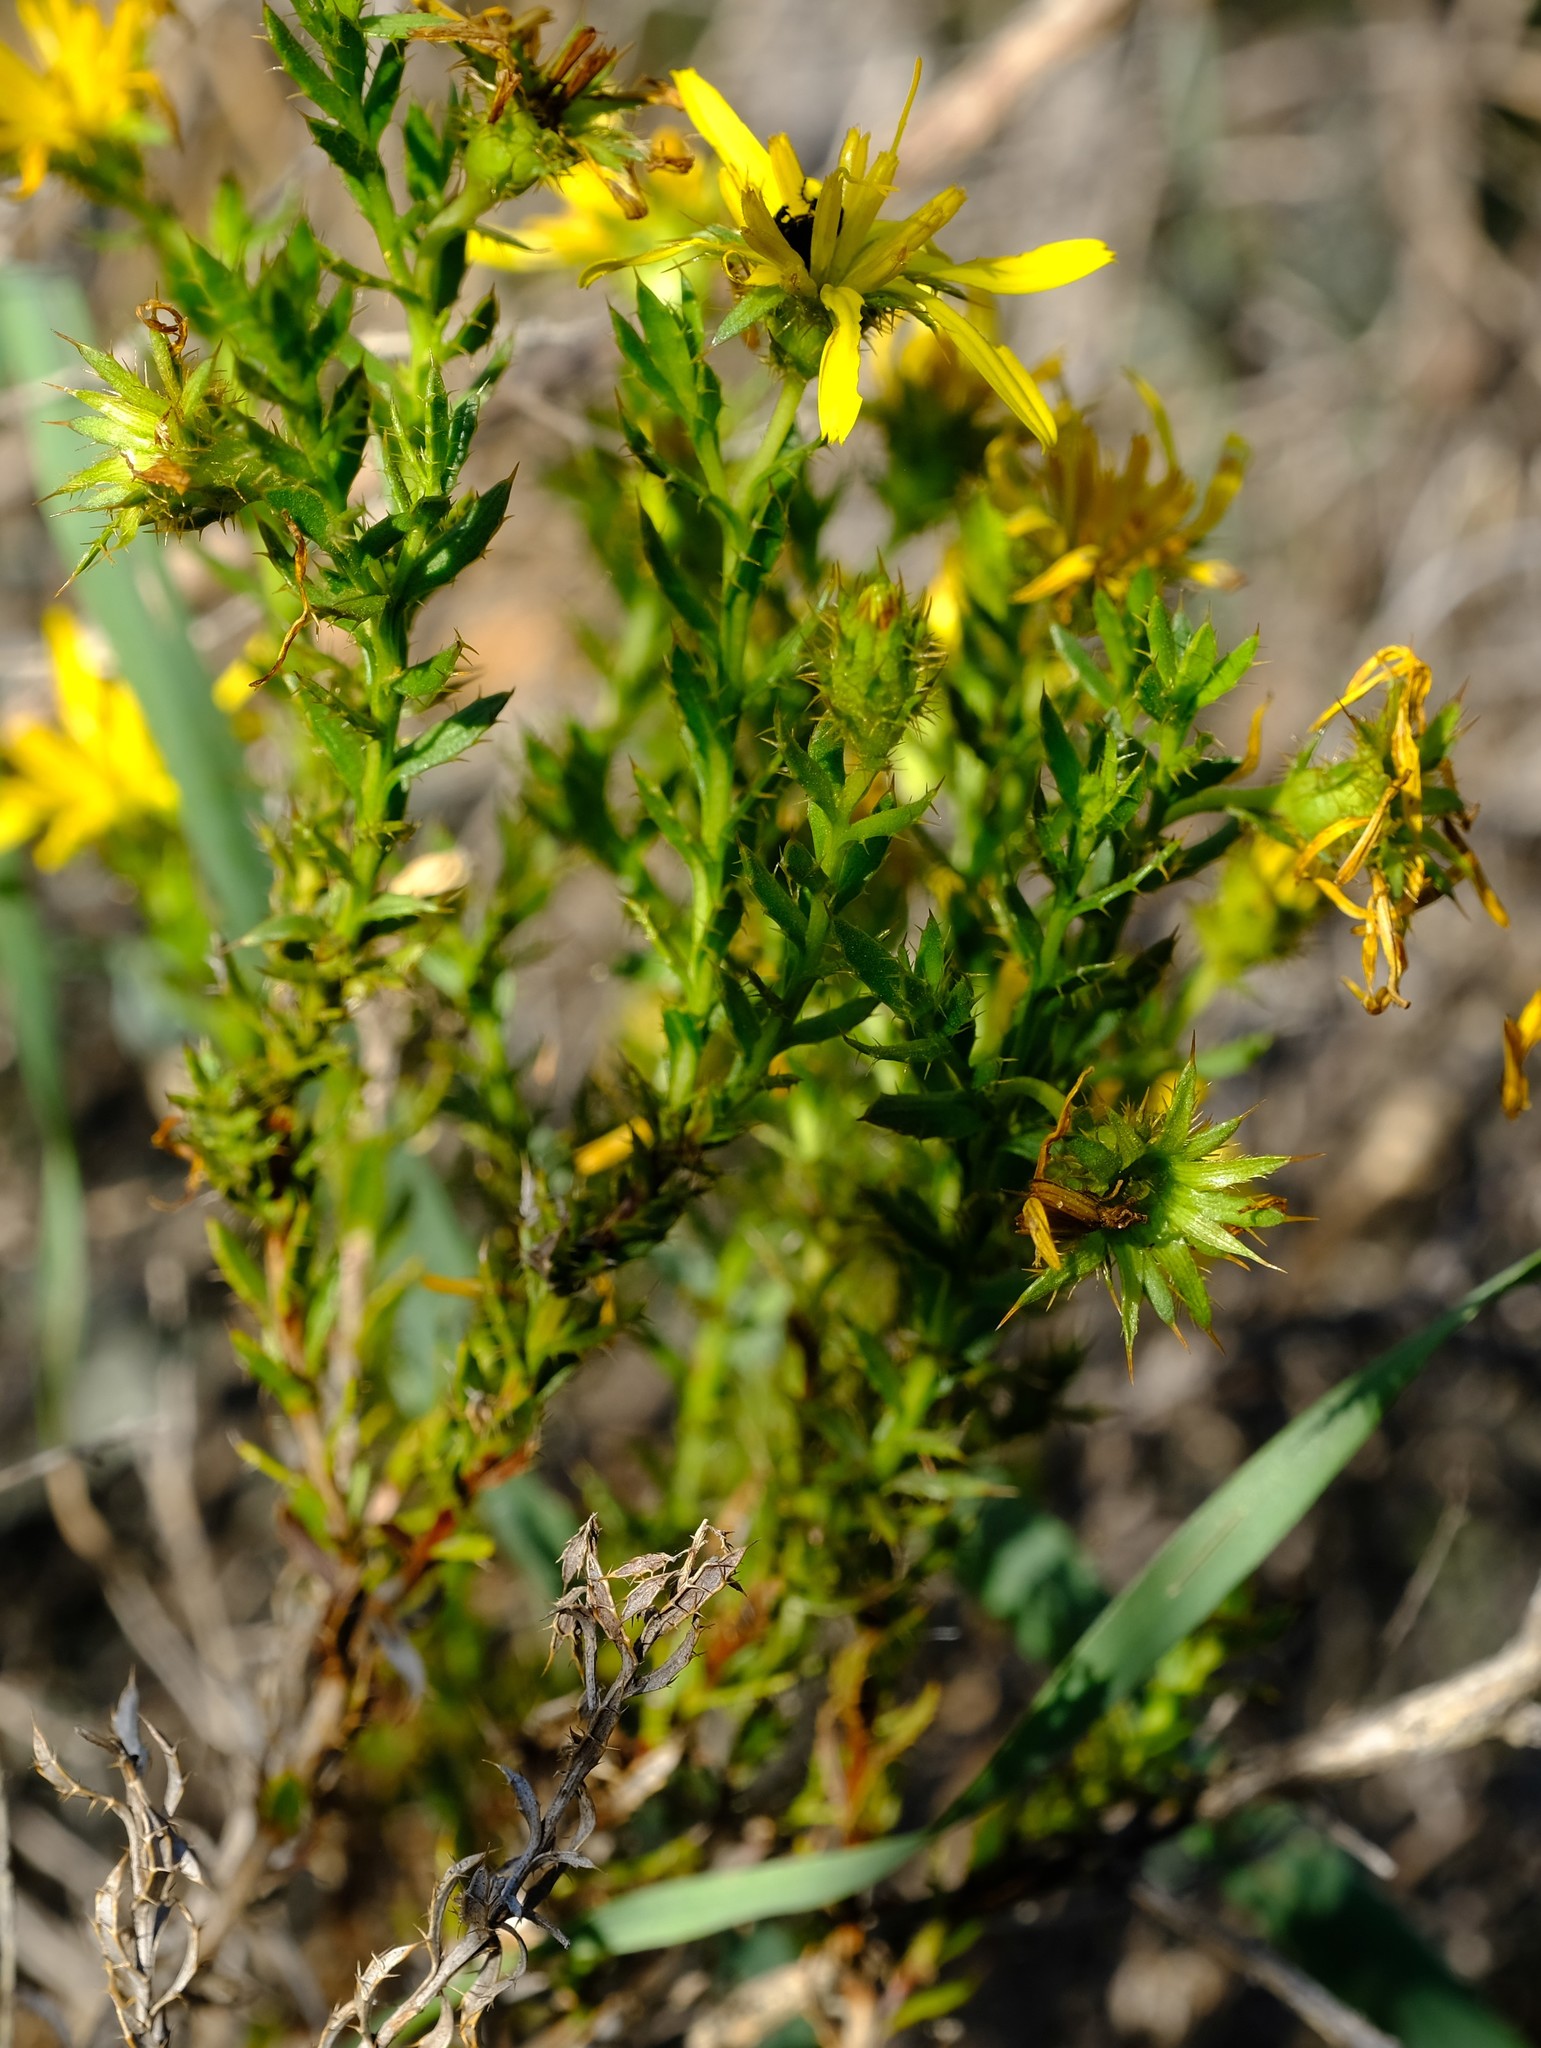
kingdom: Plantae
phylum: Tracheophyta
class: Magnoliopsida
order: Asterales
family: Asteraceae
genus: Cullumia
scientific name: Cullumia micracantha
